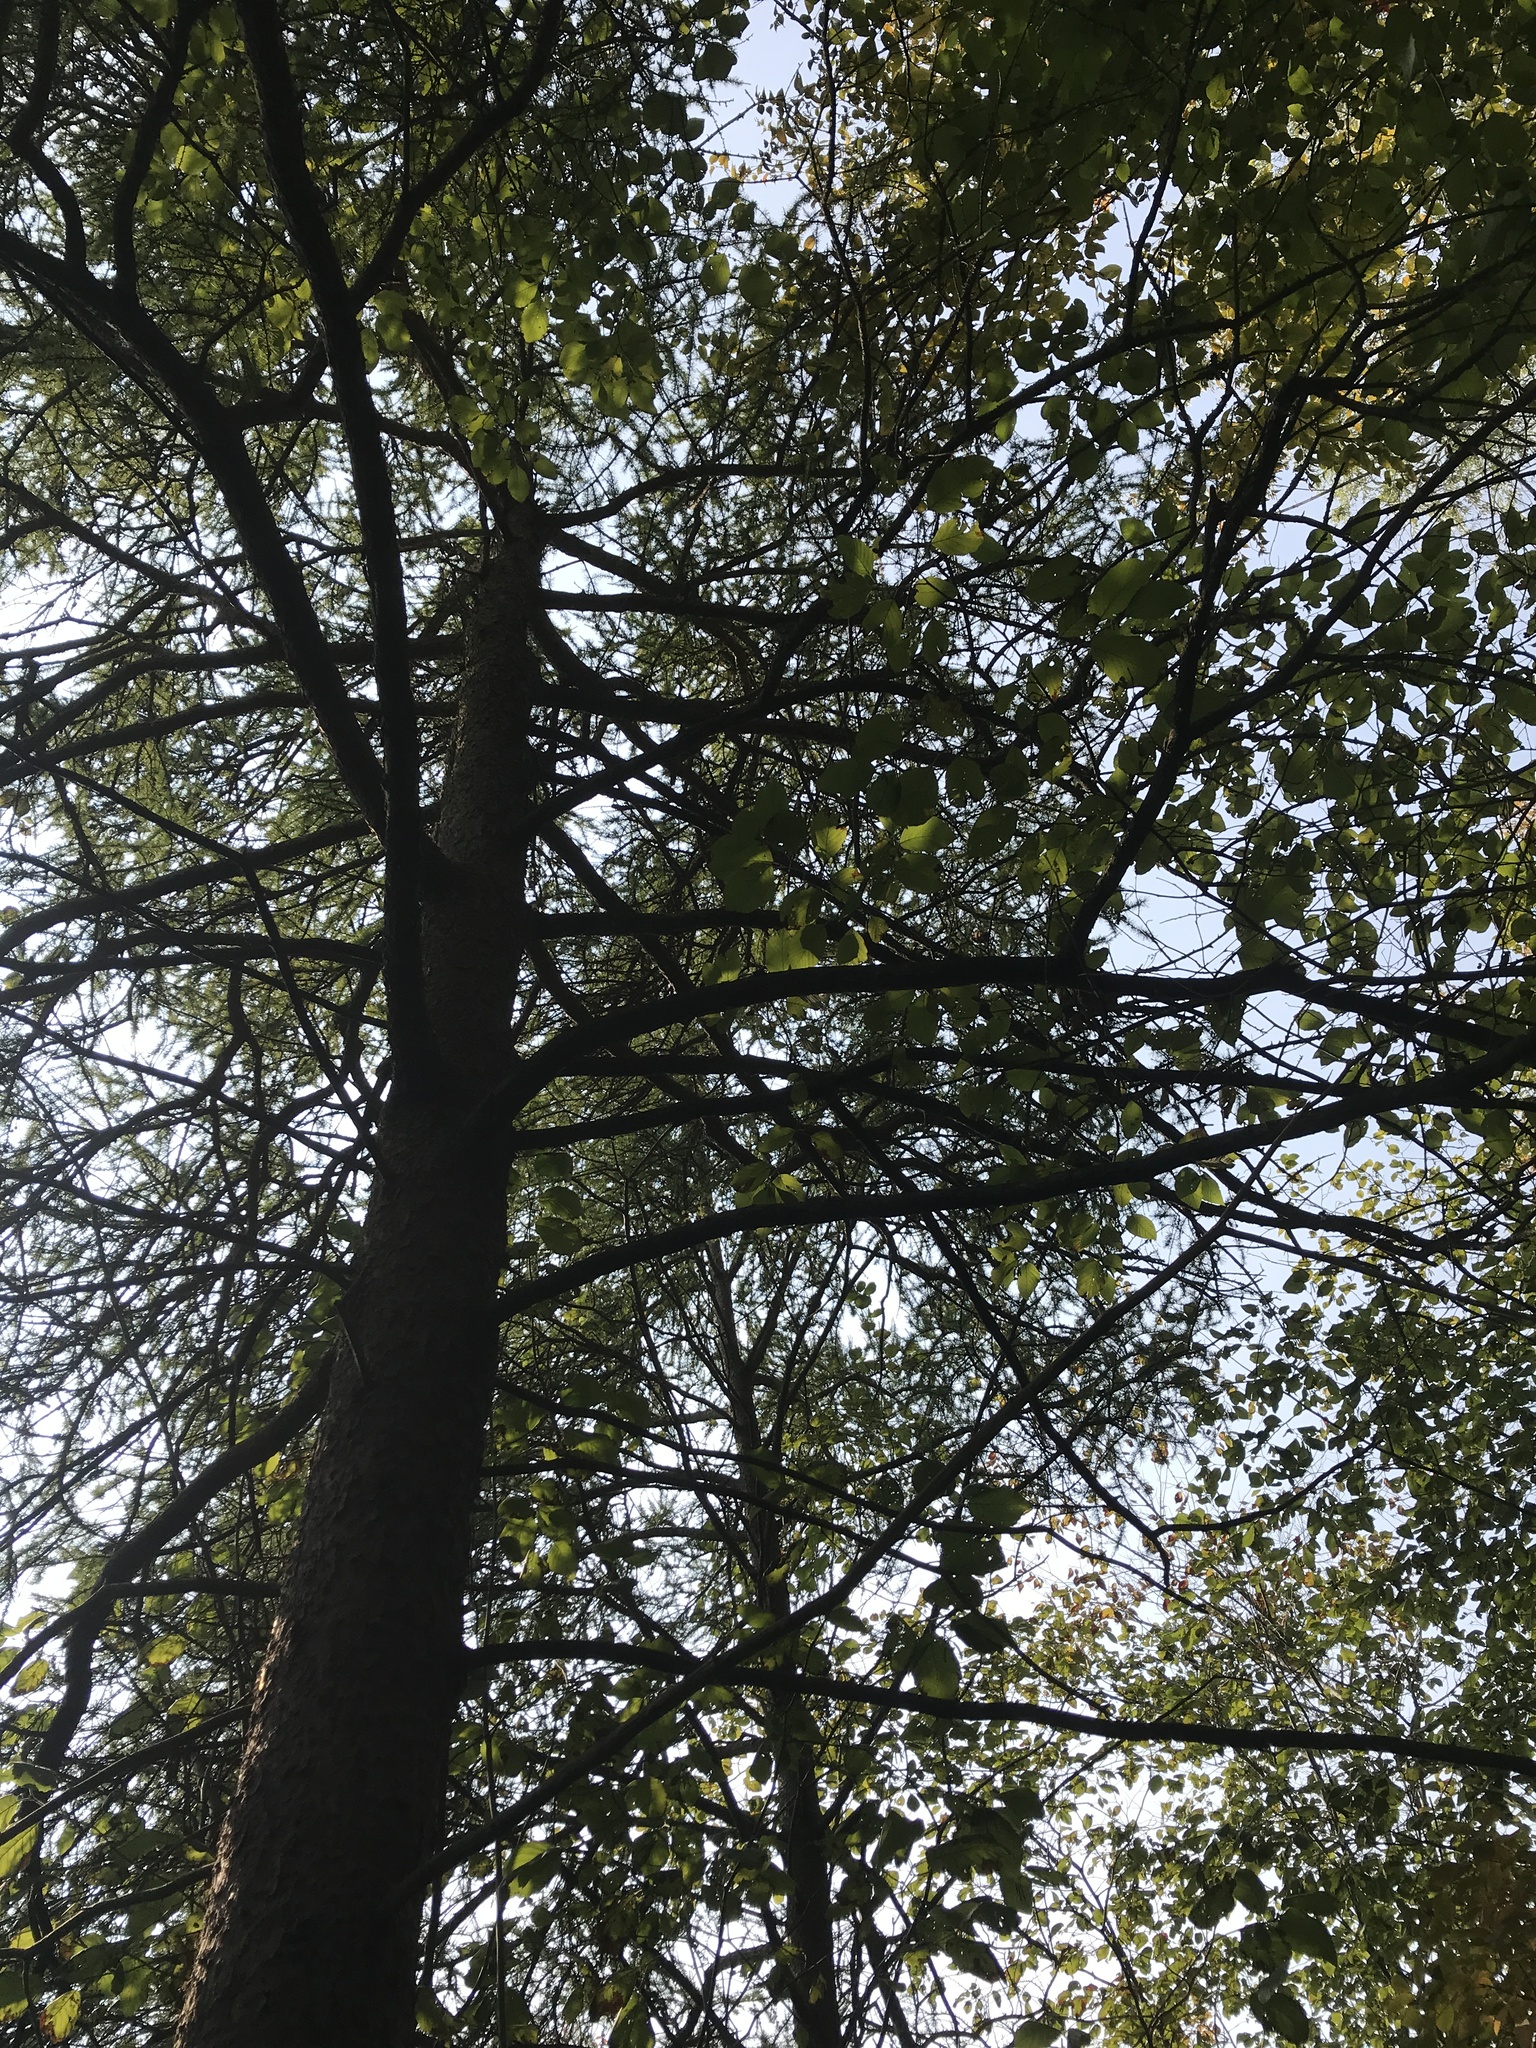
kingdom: Plantae
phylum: Tracheophyta
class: Pinopsida
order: Pinales
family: Pinaceae
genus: Larix
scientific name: Larix laricina
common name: American larch
